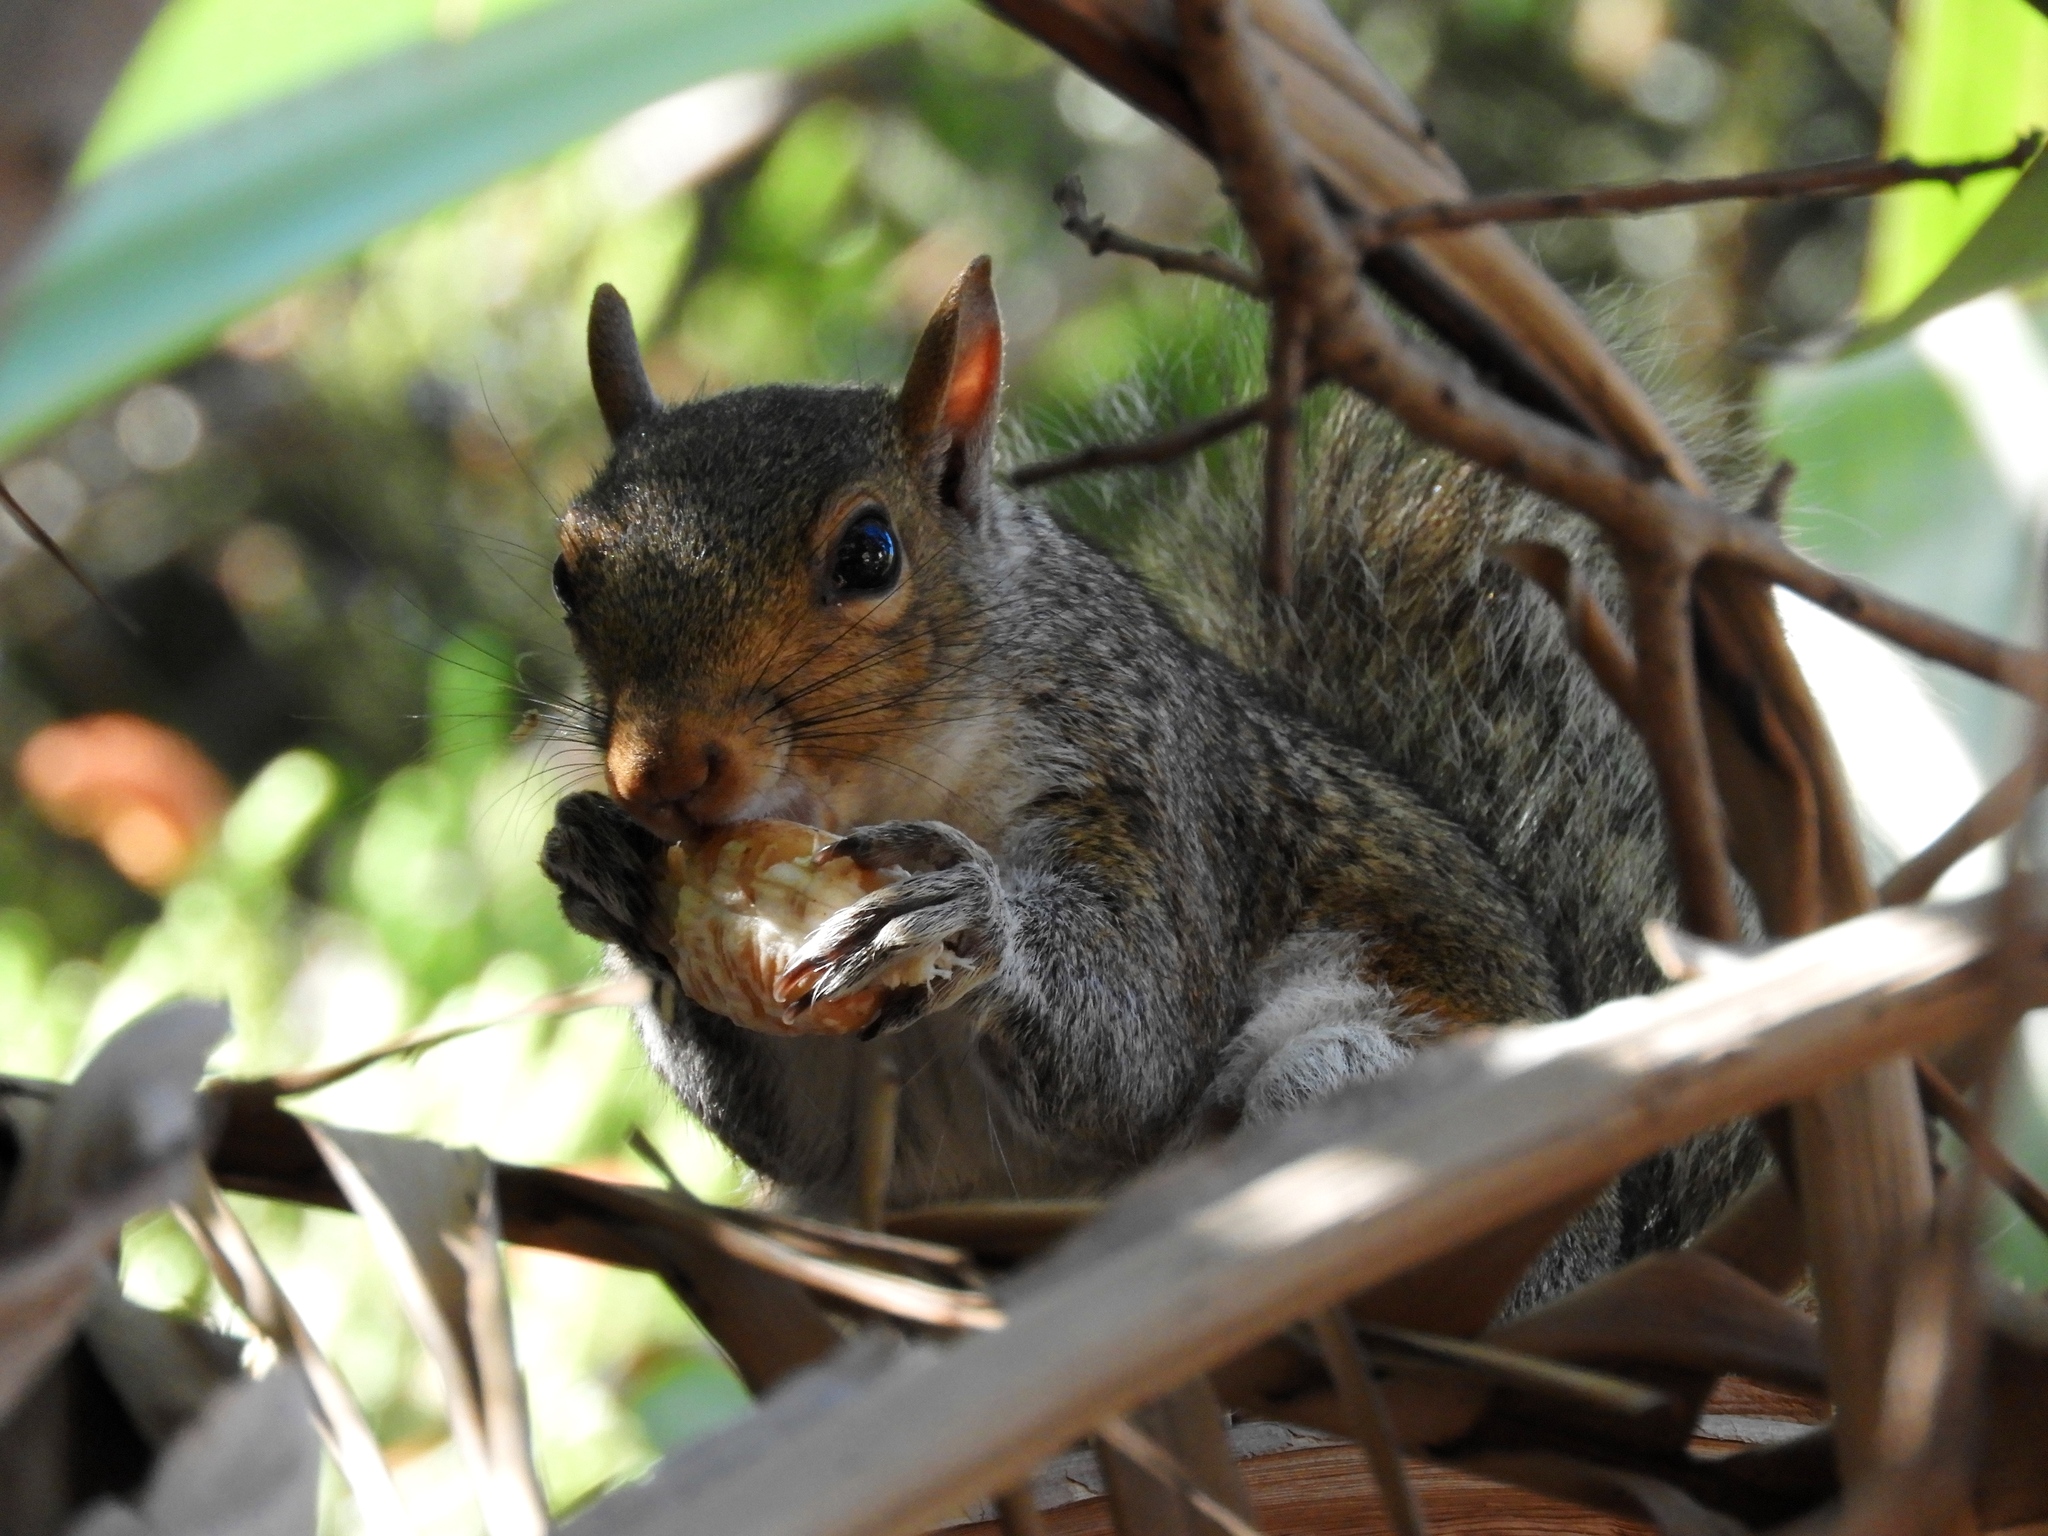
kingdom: Animalia
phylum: Chordata
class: Mammalia
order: Rodentia
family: Sciuridae
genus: Sciurus
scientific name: Sciurus carolinensis
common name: Eastern gray squirrel
